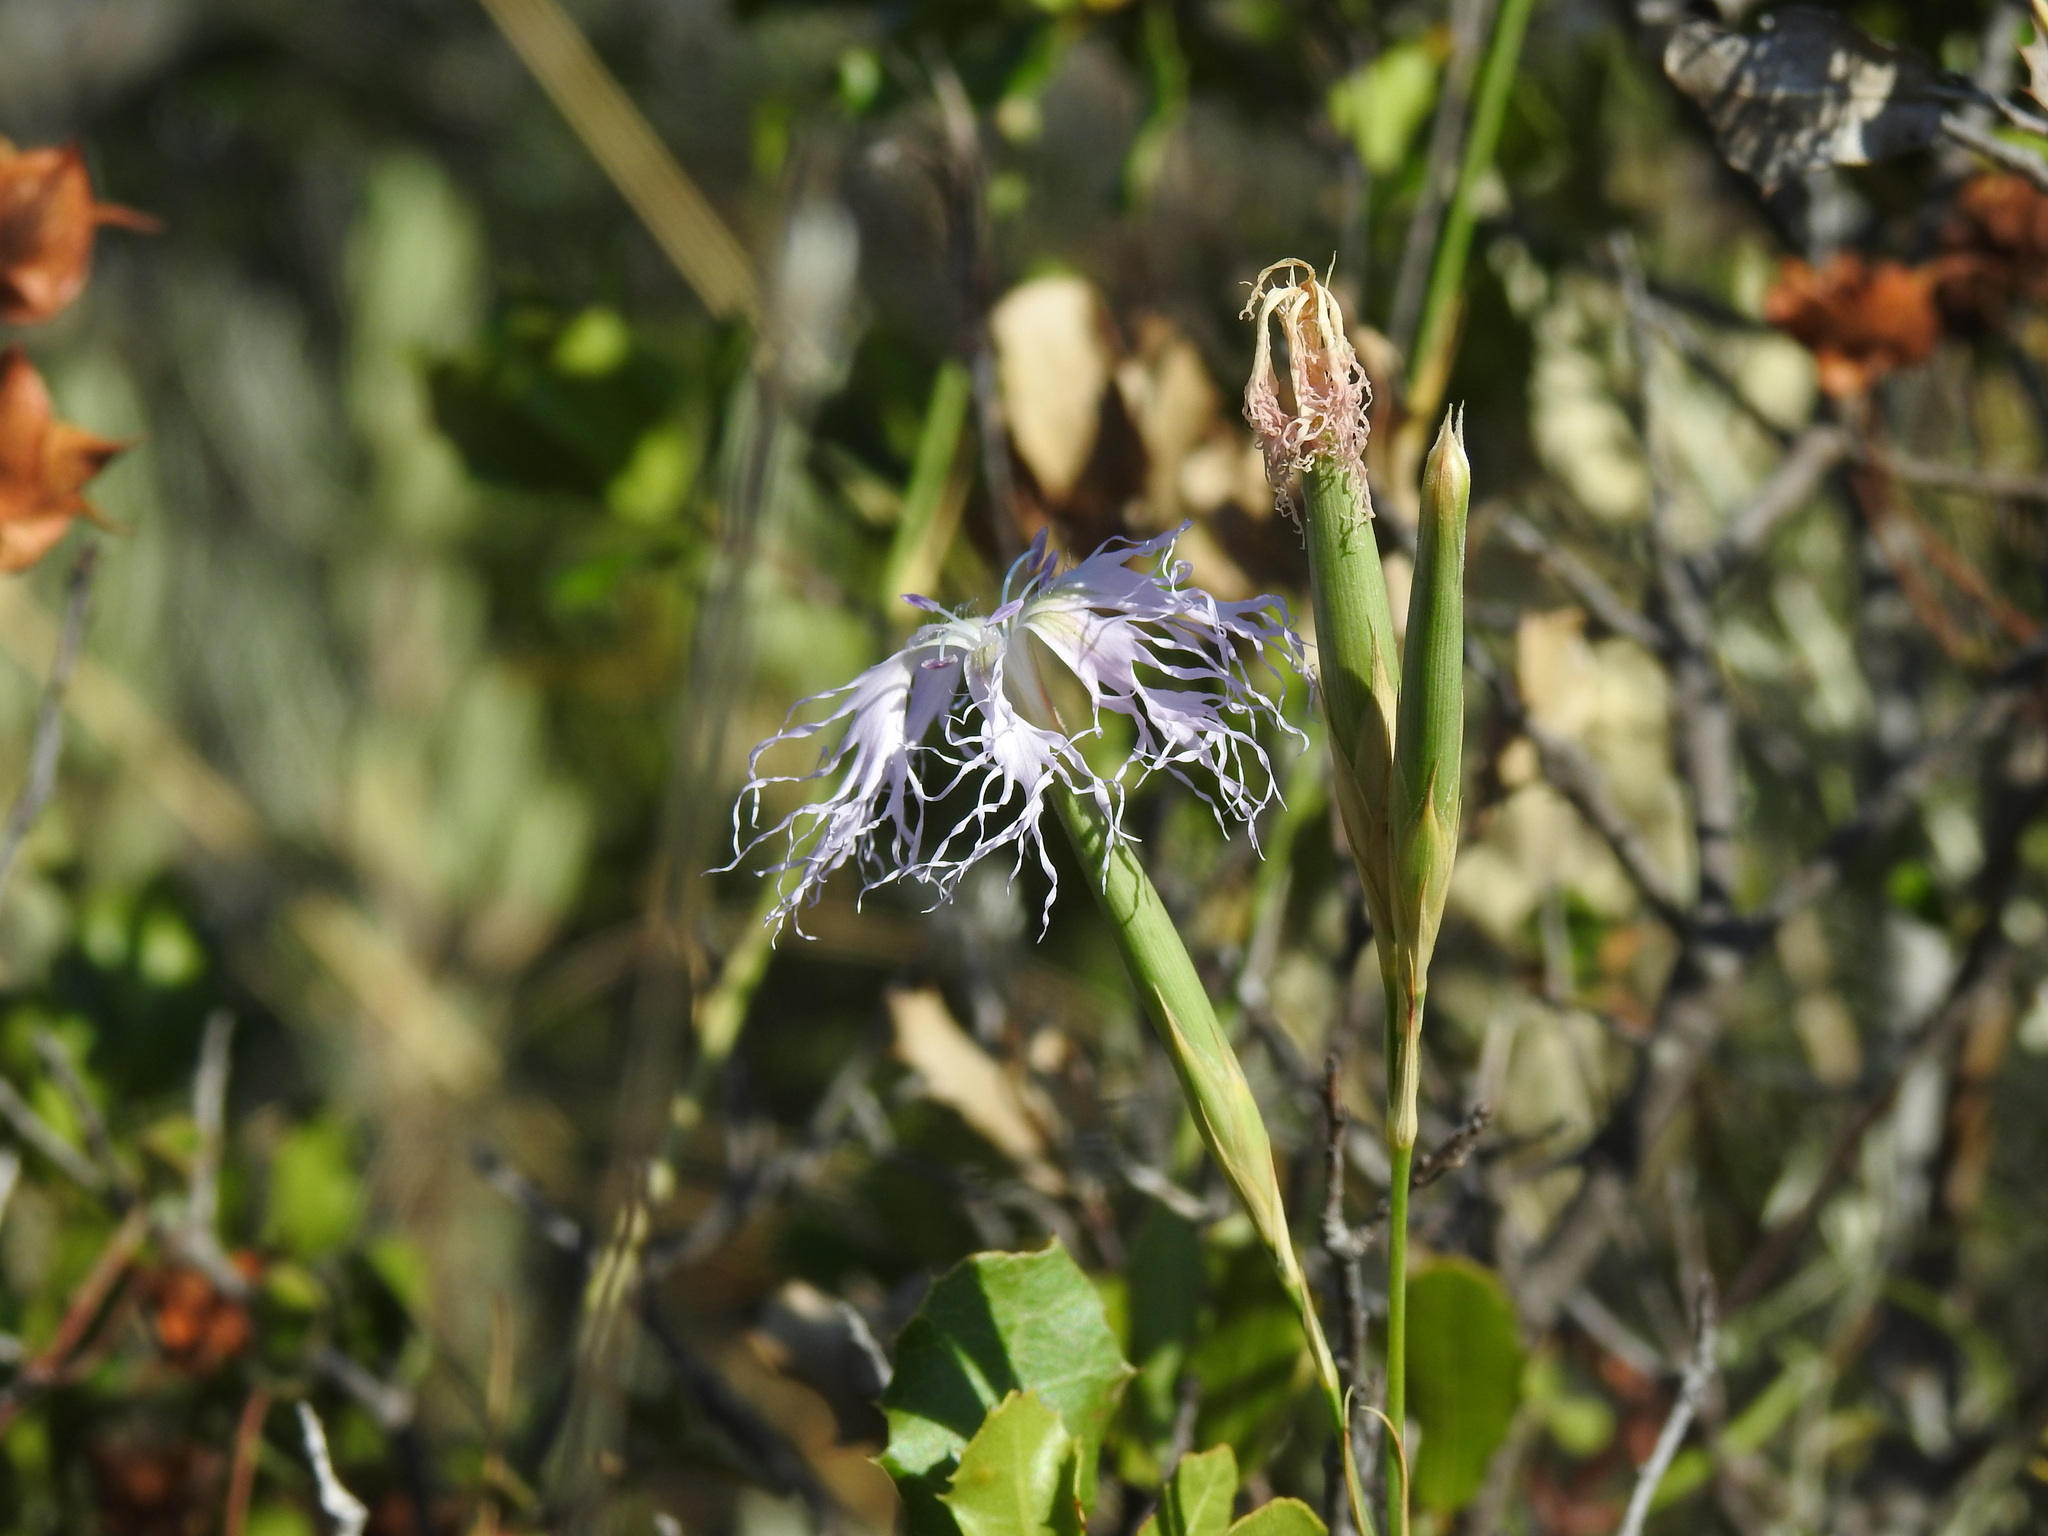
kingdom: Plantae
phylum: Tracheophyta
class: Magnoliopsida
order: Caryophyllales
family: Caryophyllaceae
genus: Dianthus
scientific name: Dianthus broteri
